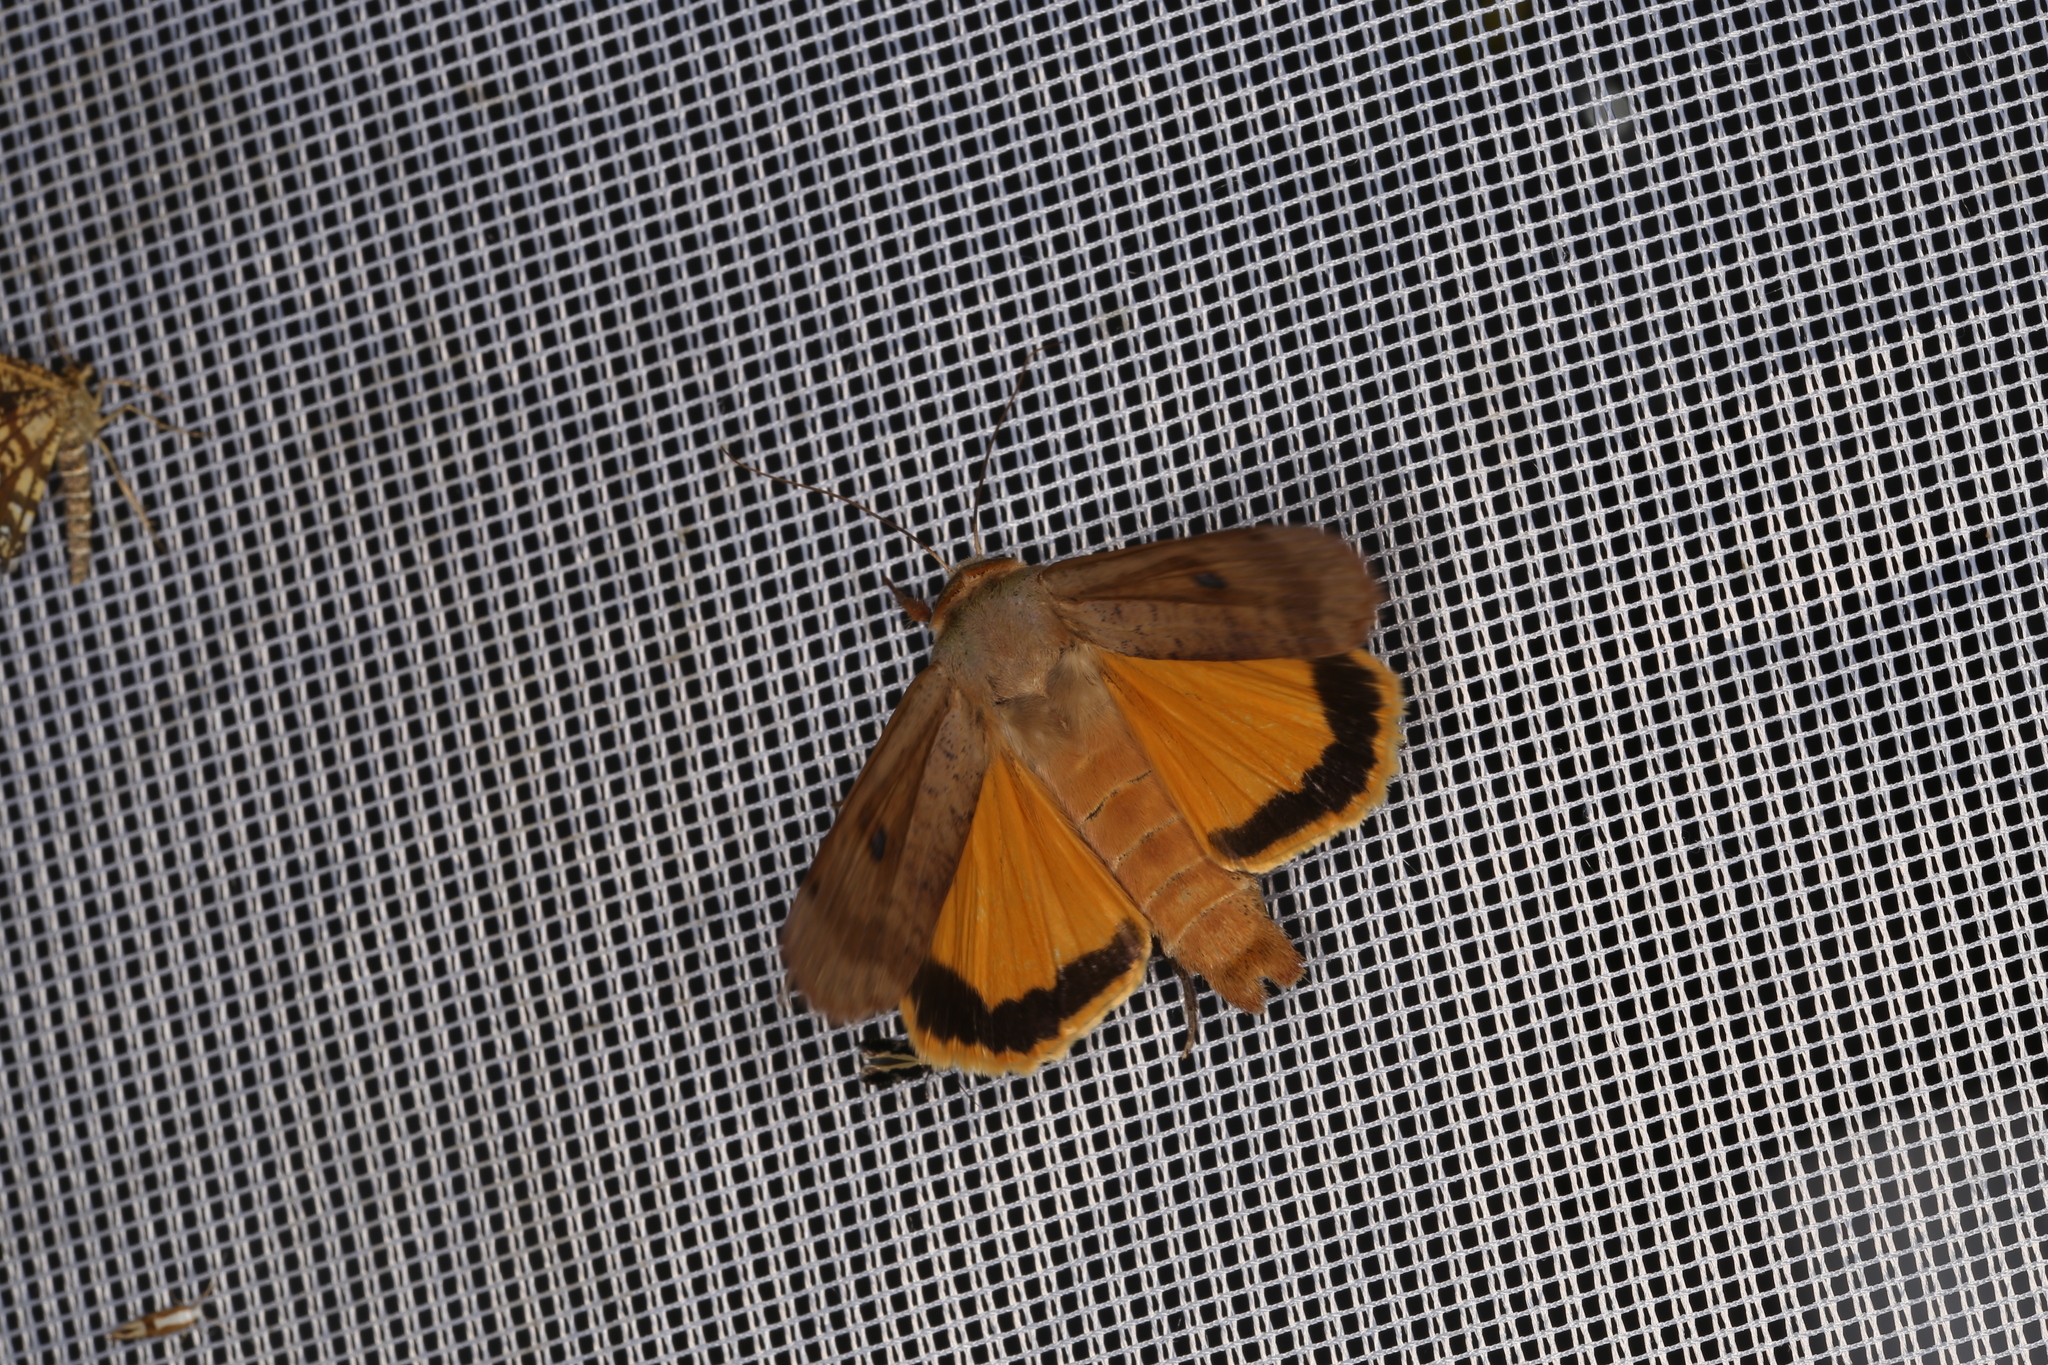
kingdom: Animalia
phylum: Arthropoda
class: Insecta
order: Lepidoptera
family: Noctuidae
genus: Noctua
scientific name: Noctua pronuba
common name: Large yellow underwing
